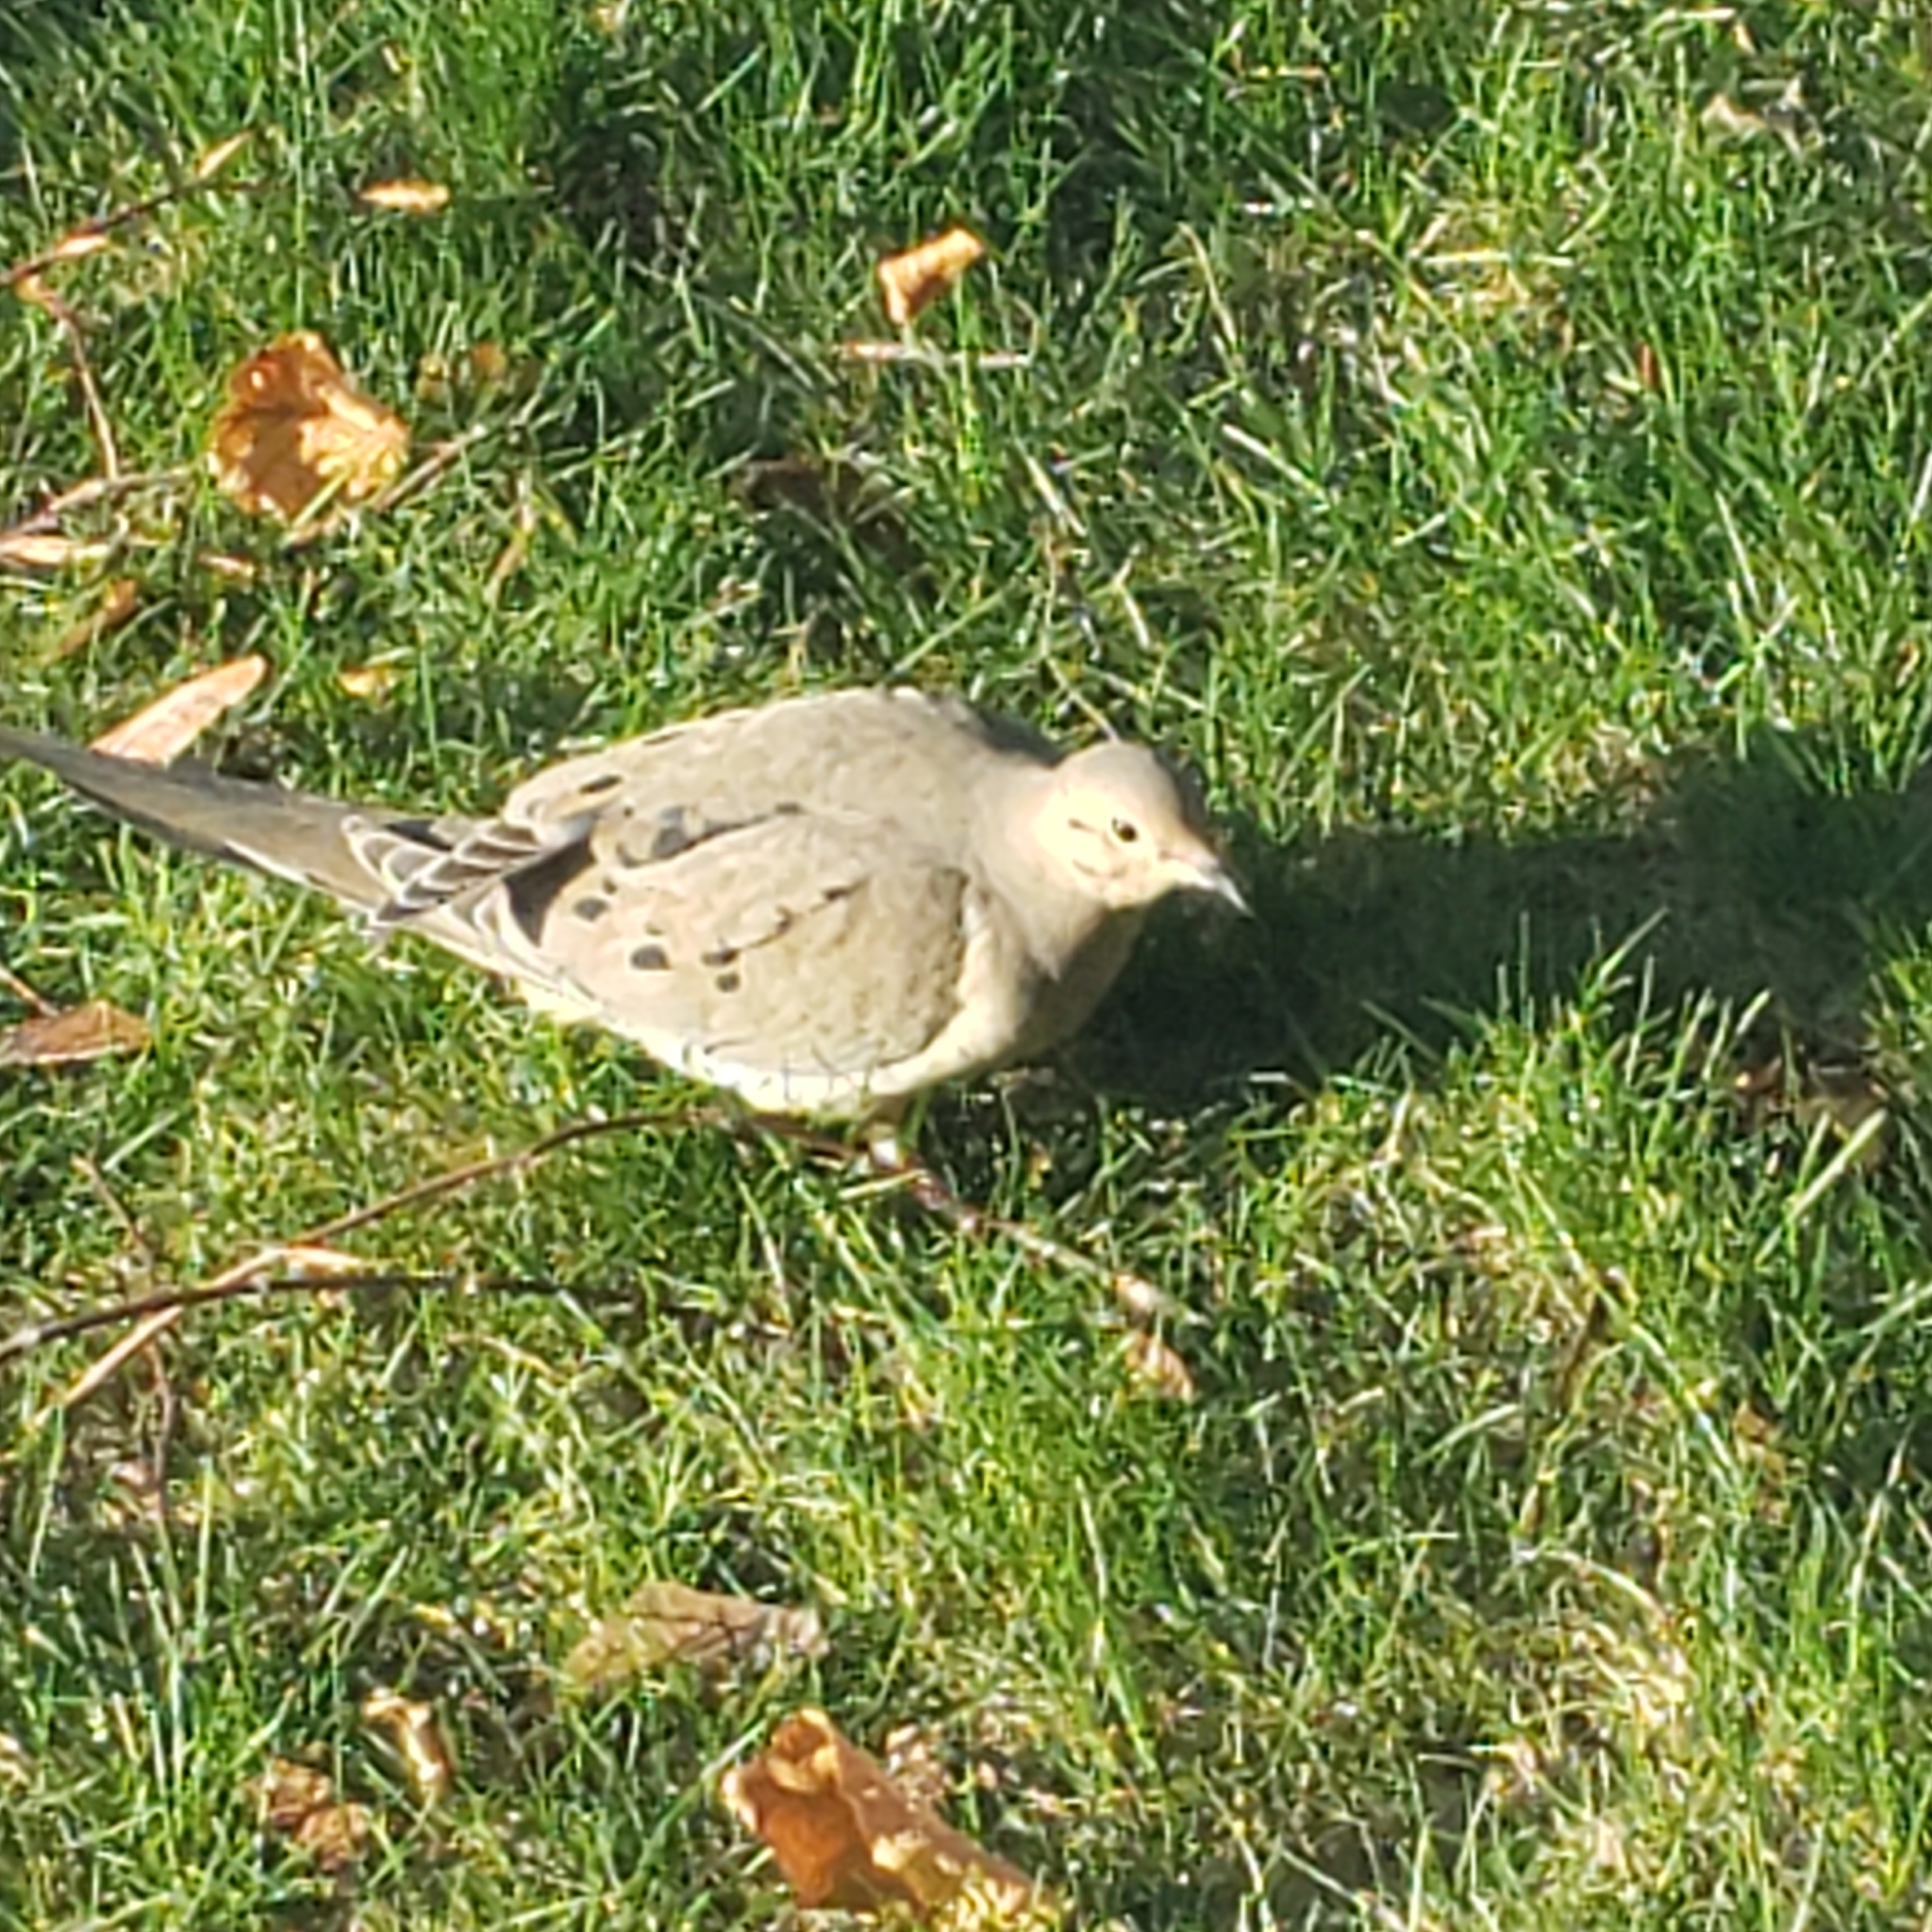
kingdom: Animalia
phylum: Chordata
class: Aves
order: Columbiformes
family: Columbidae
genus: Zenaida
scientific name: Zenaida macroura
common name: Mourning dove
